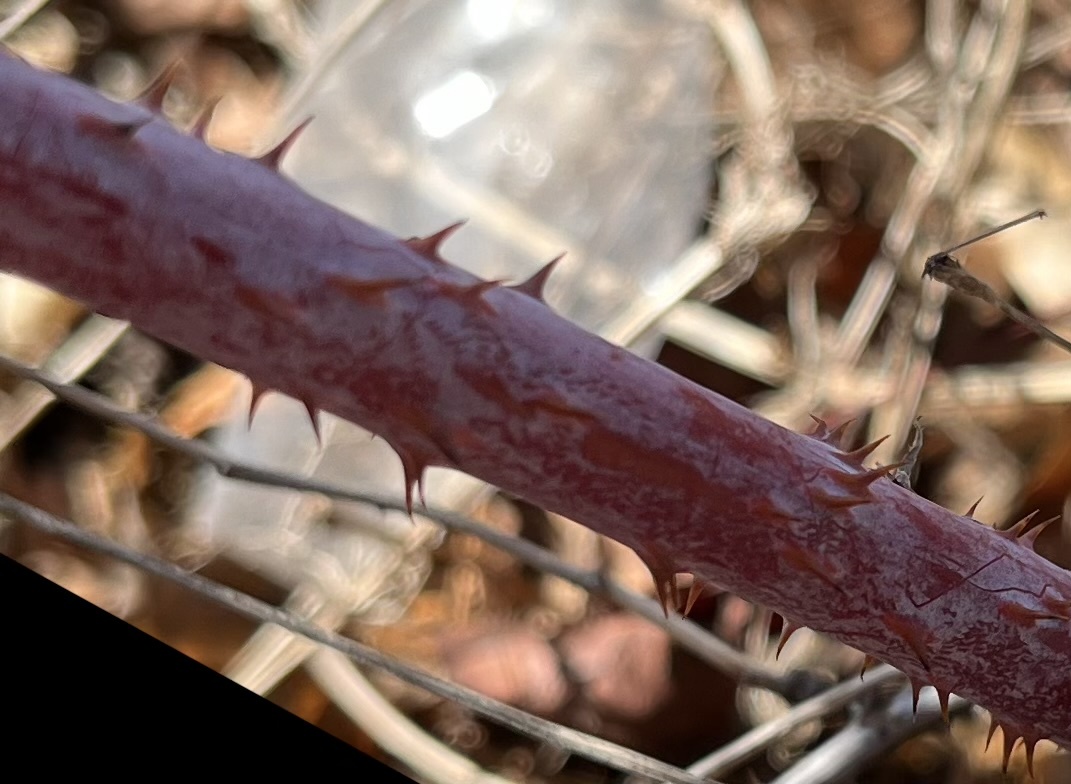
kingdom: Plantae
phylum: Tracheophyta
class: Magnoliopsida
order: Rosales
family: Rosaceae
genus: Rubus
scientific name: Rubus occidentalis
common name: Black raspberry
